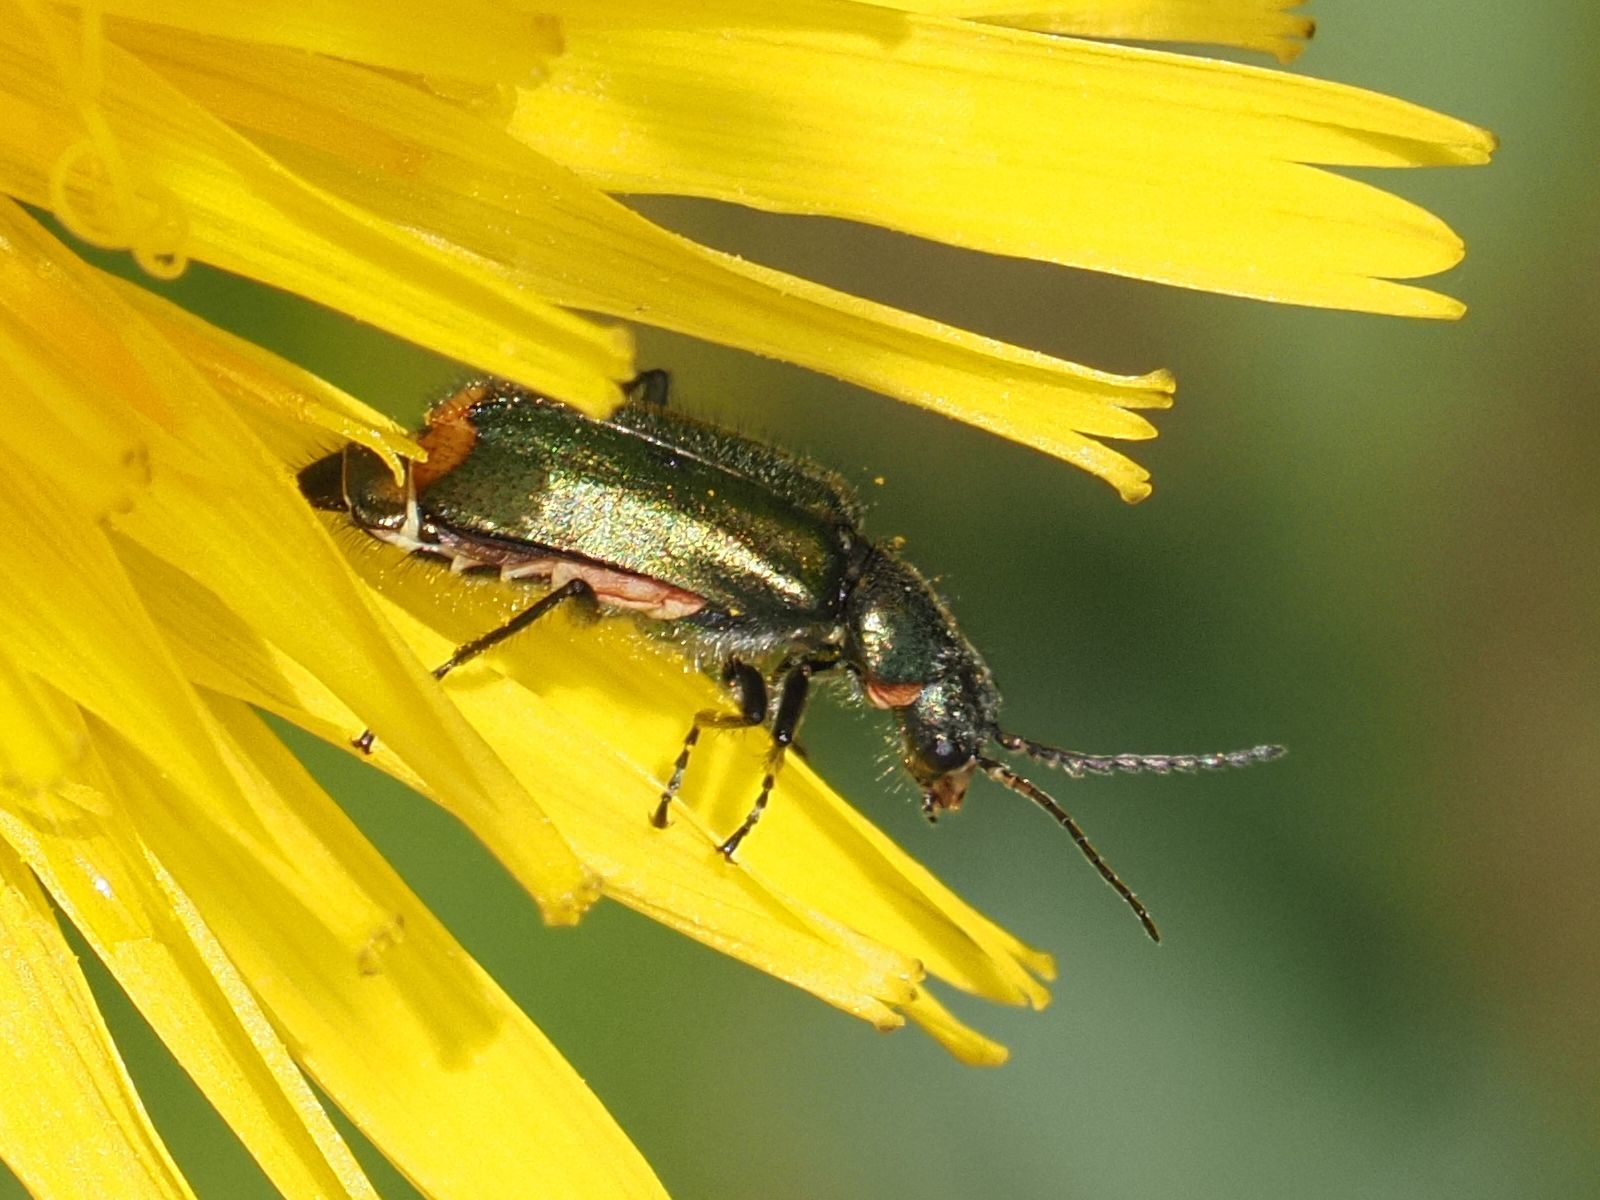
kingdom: Animalia
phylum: Arthropoda
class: Insecta
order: Coleoptera
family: Melyridae
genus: Malachius
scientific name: Malachius bipustulatus
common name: Malachite beetle
